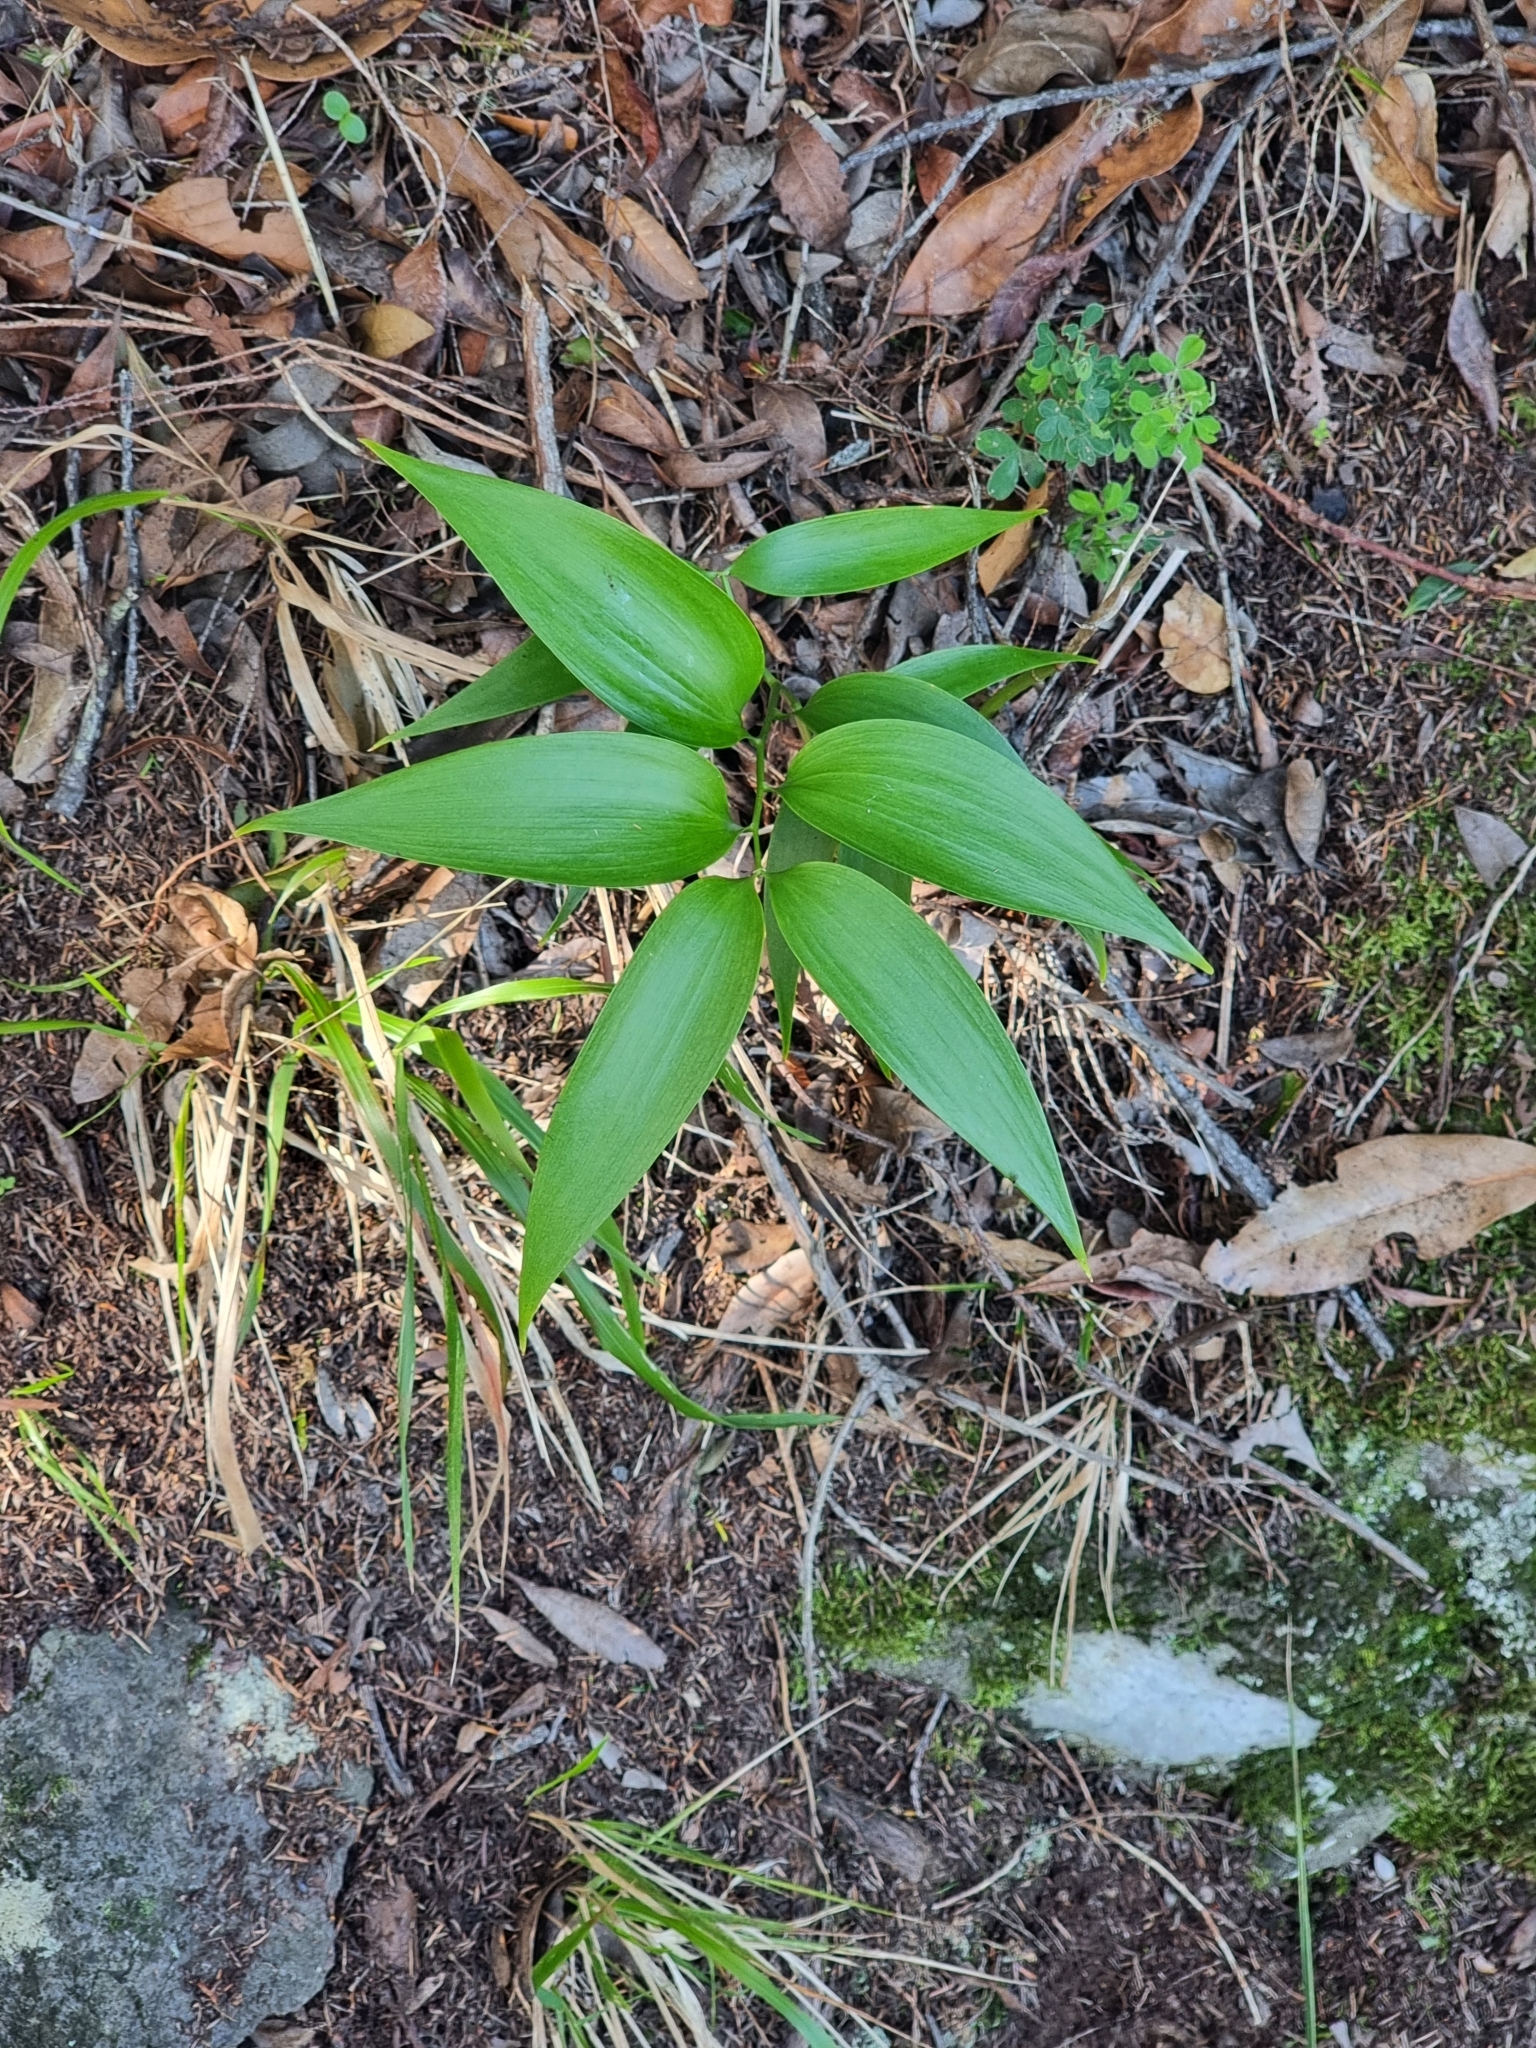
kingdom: Plantae
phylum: Tracheophyta
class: Liliopsida
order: Asparagales
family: Asparagaceae
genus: Semele
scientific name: Semele androgyna
